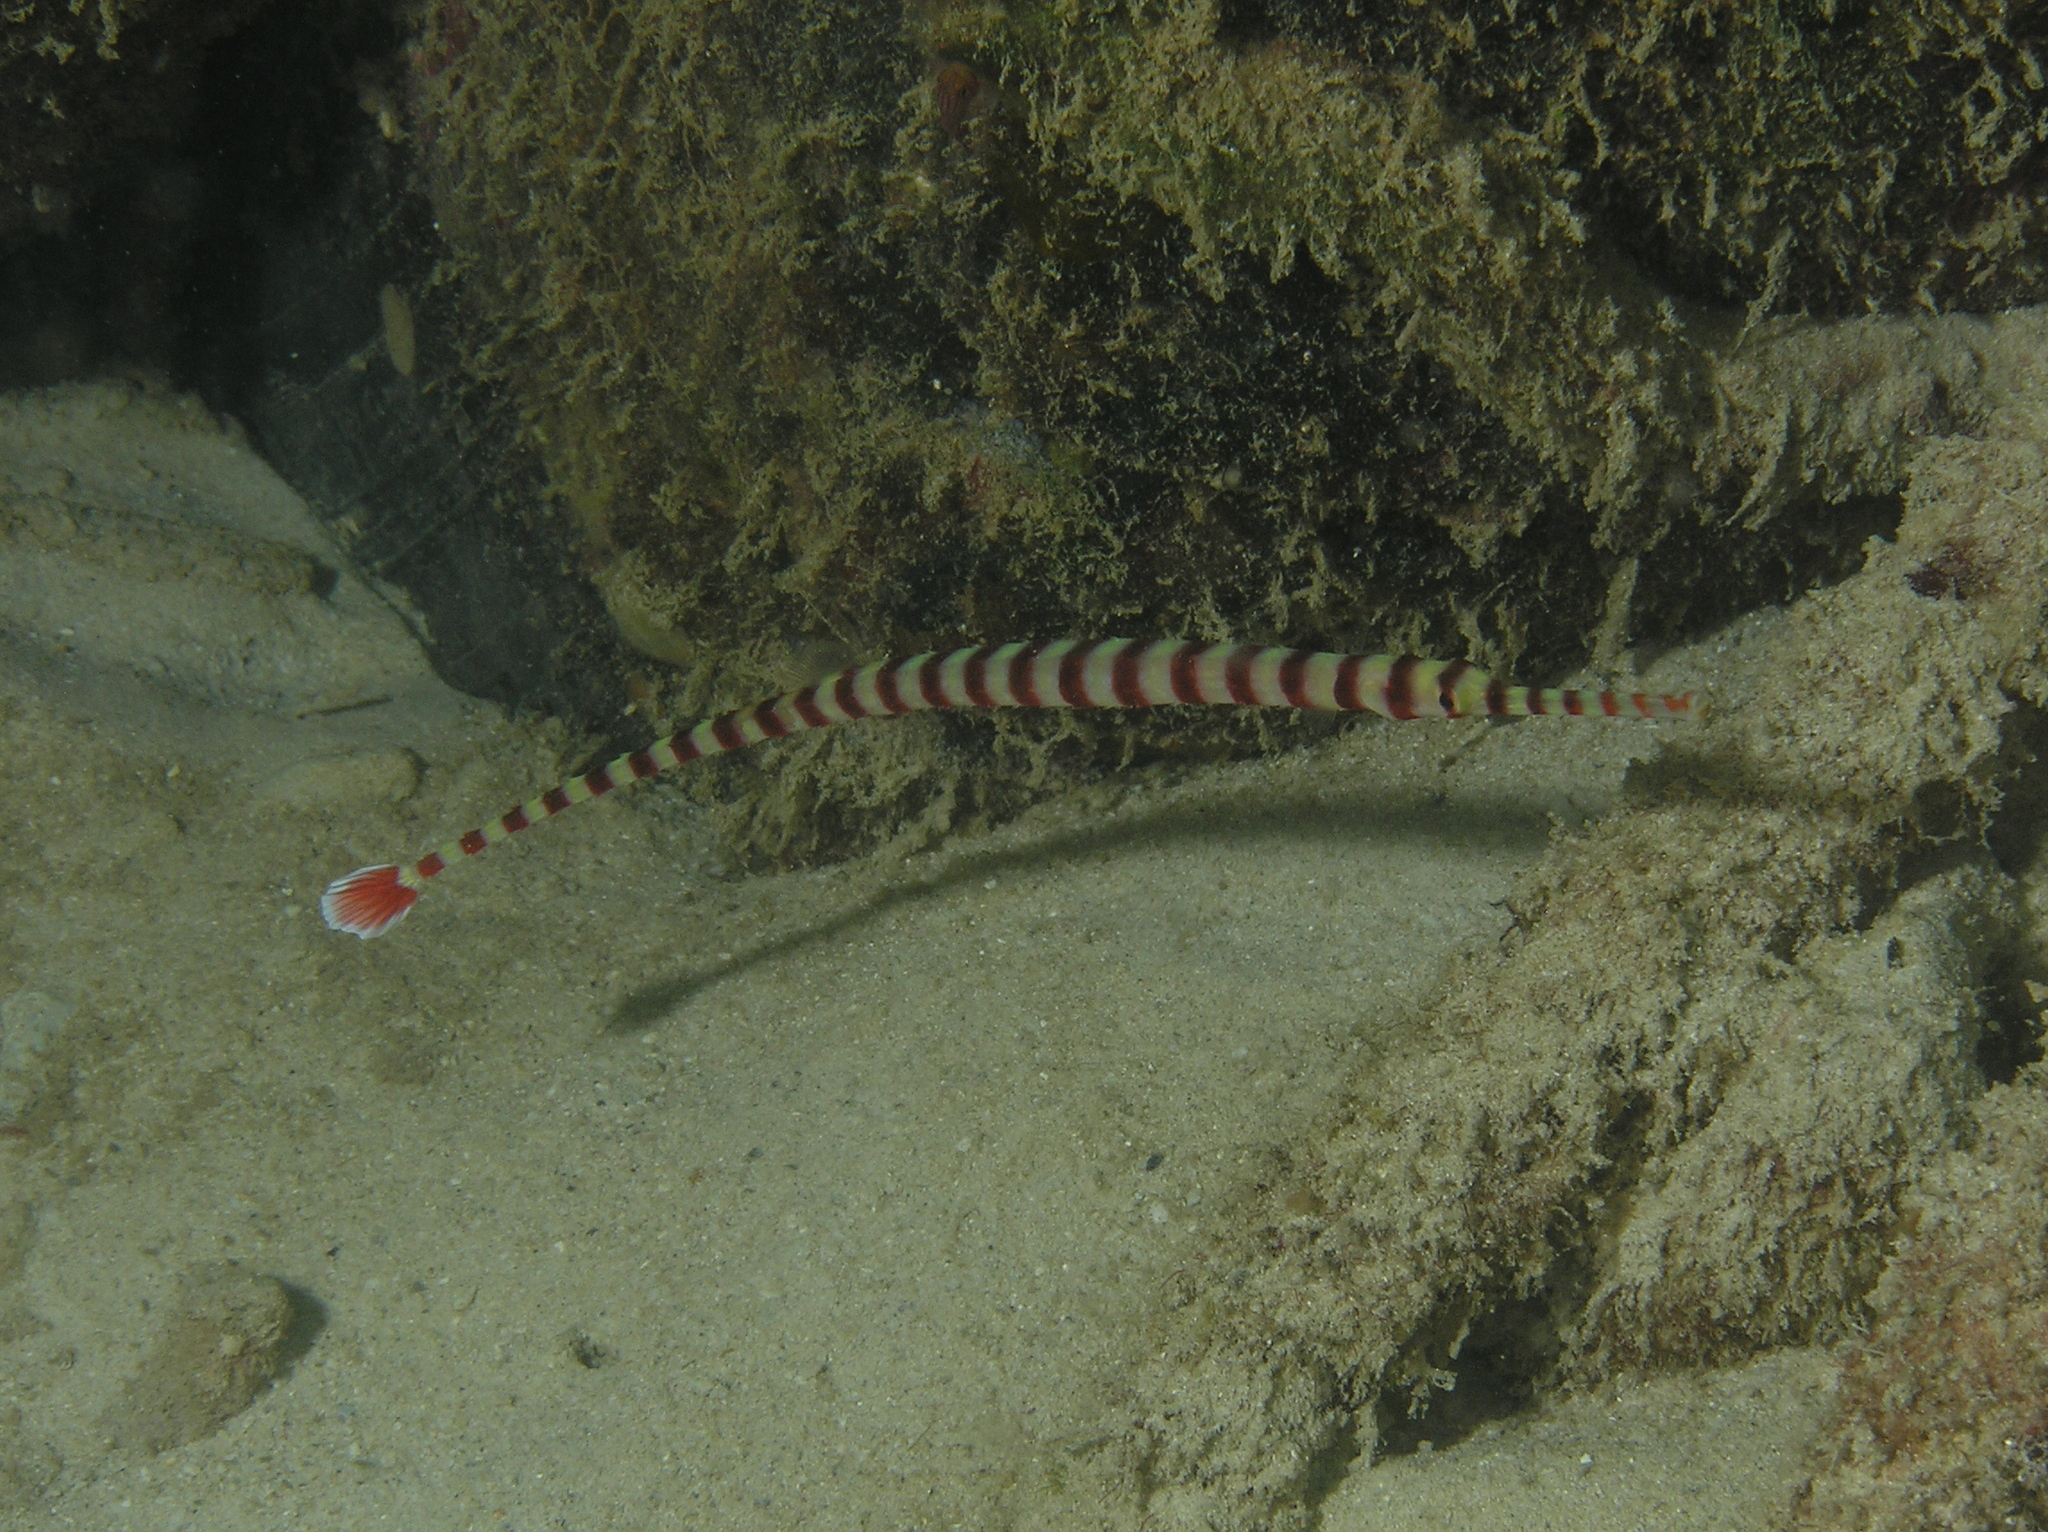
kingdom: Animalia
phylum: Chordata
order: Syngnathiformes
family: Syngnathidae
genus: Dunckerocampus
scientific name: Dunckerocampus naia
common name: Naia pipefish
